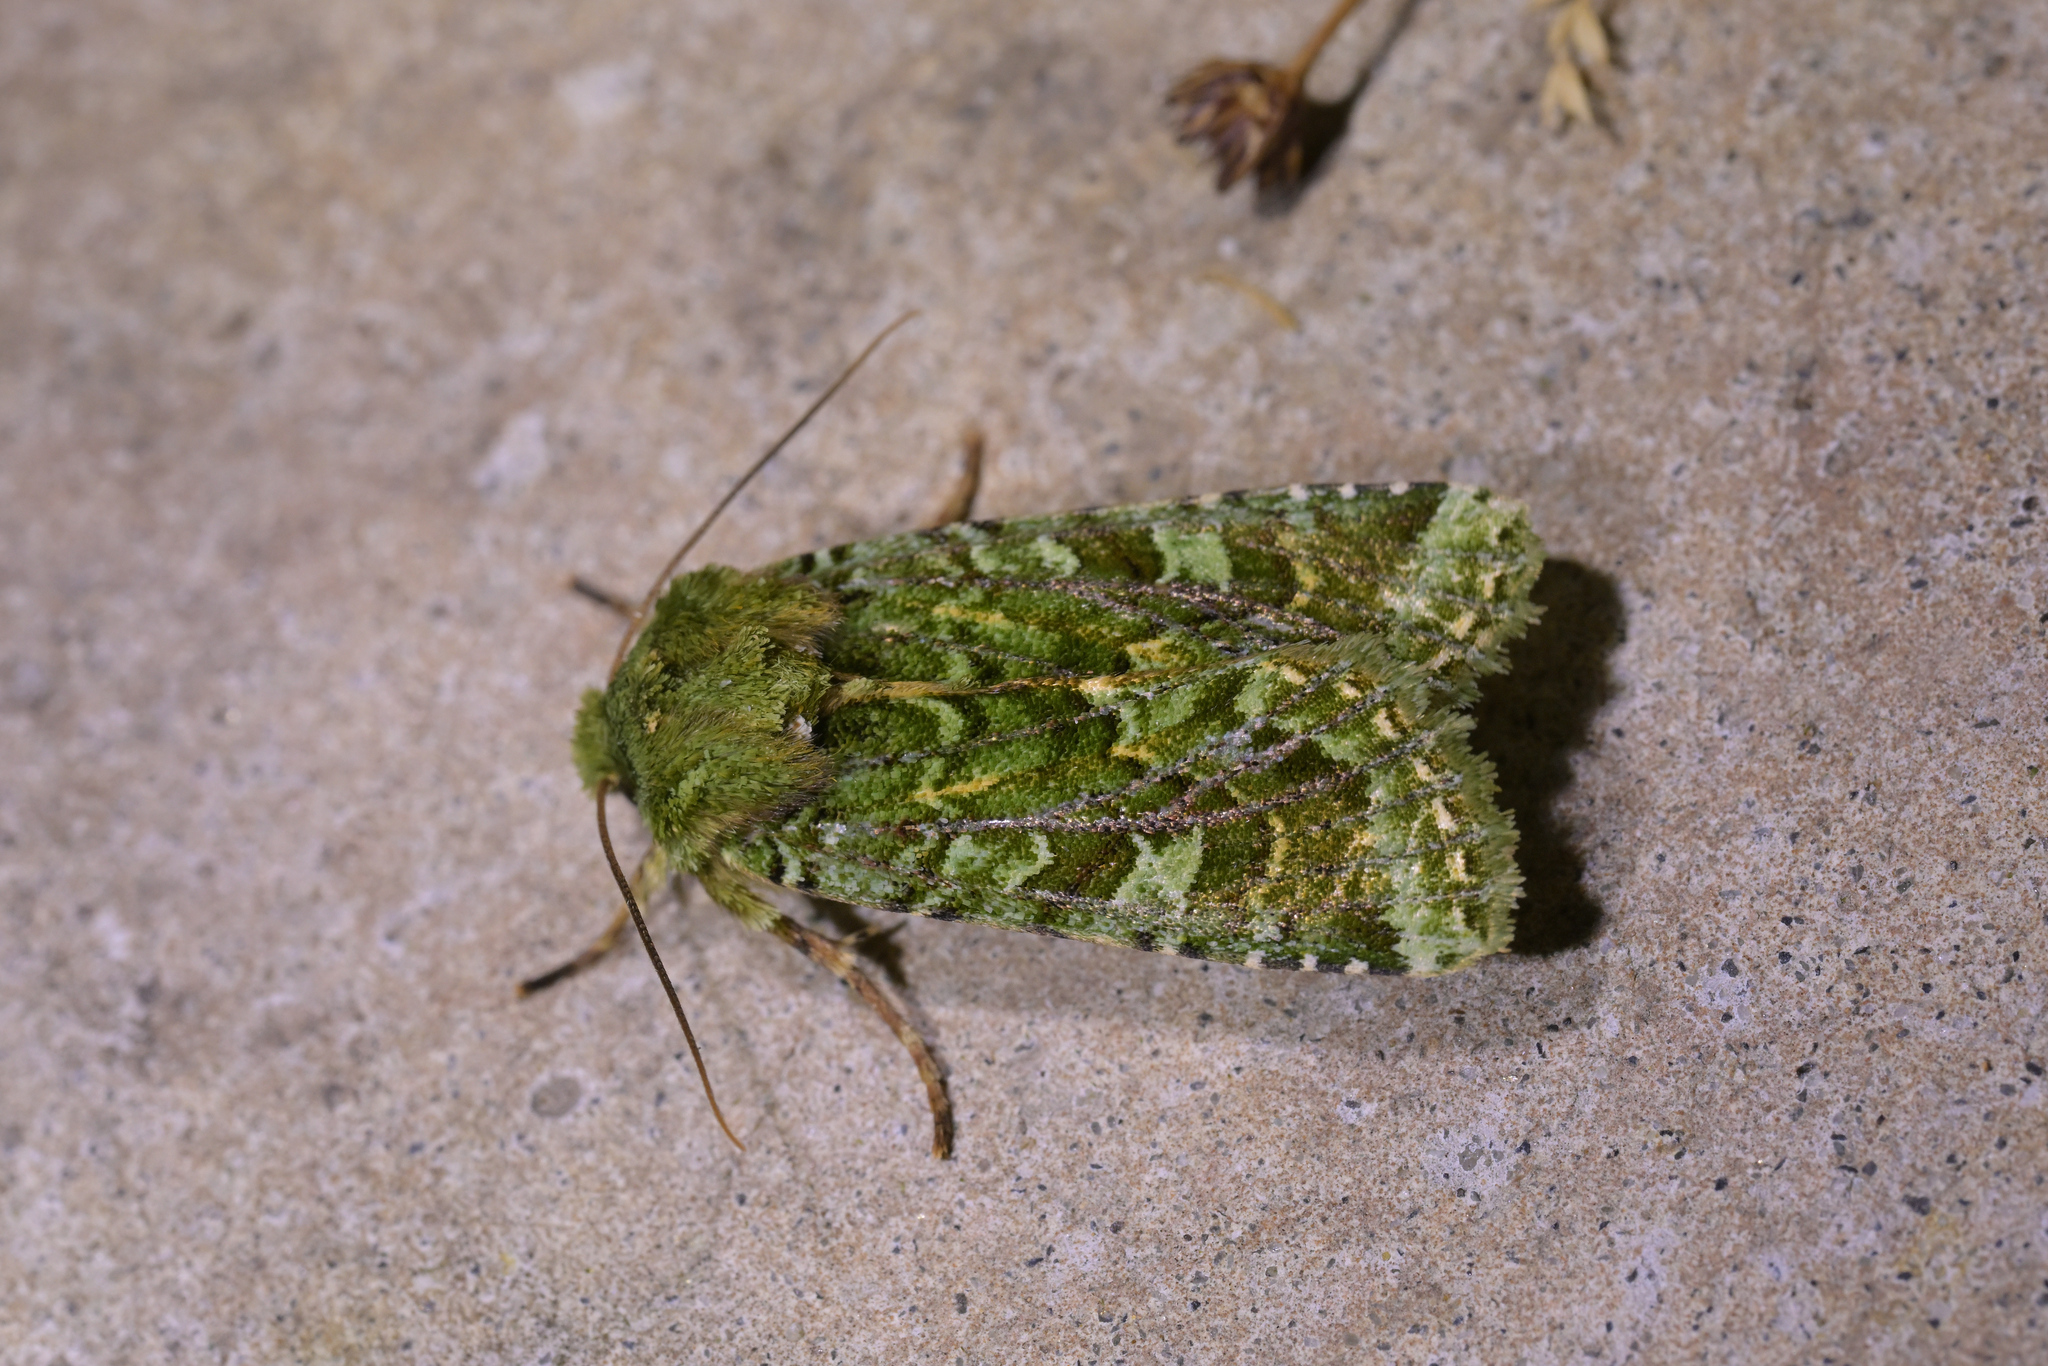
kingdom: Animalia
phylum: Arthropoda
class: Insecta
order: Lepidoptera
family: Noctuidae
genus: Feredayia
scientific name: Feredayia grammosa
